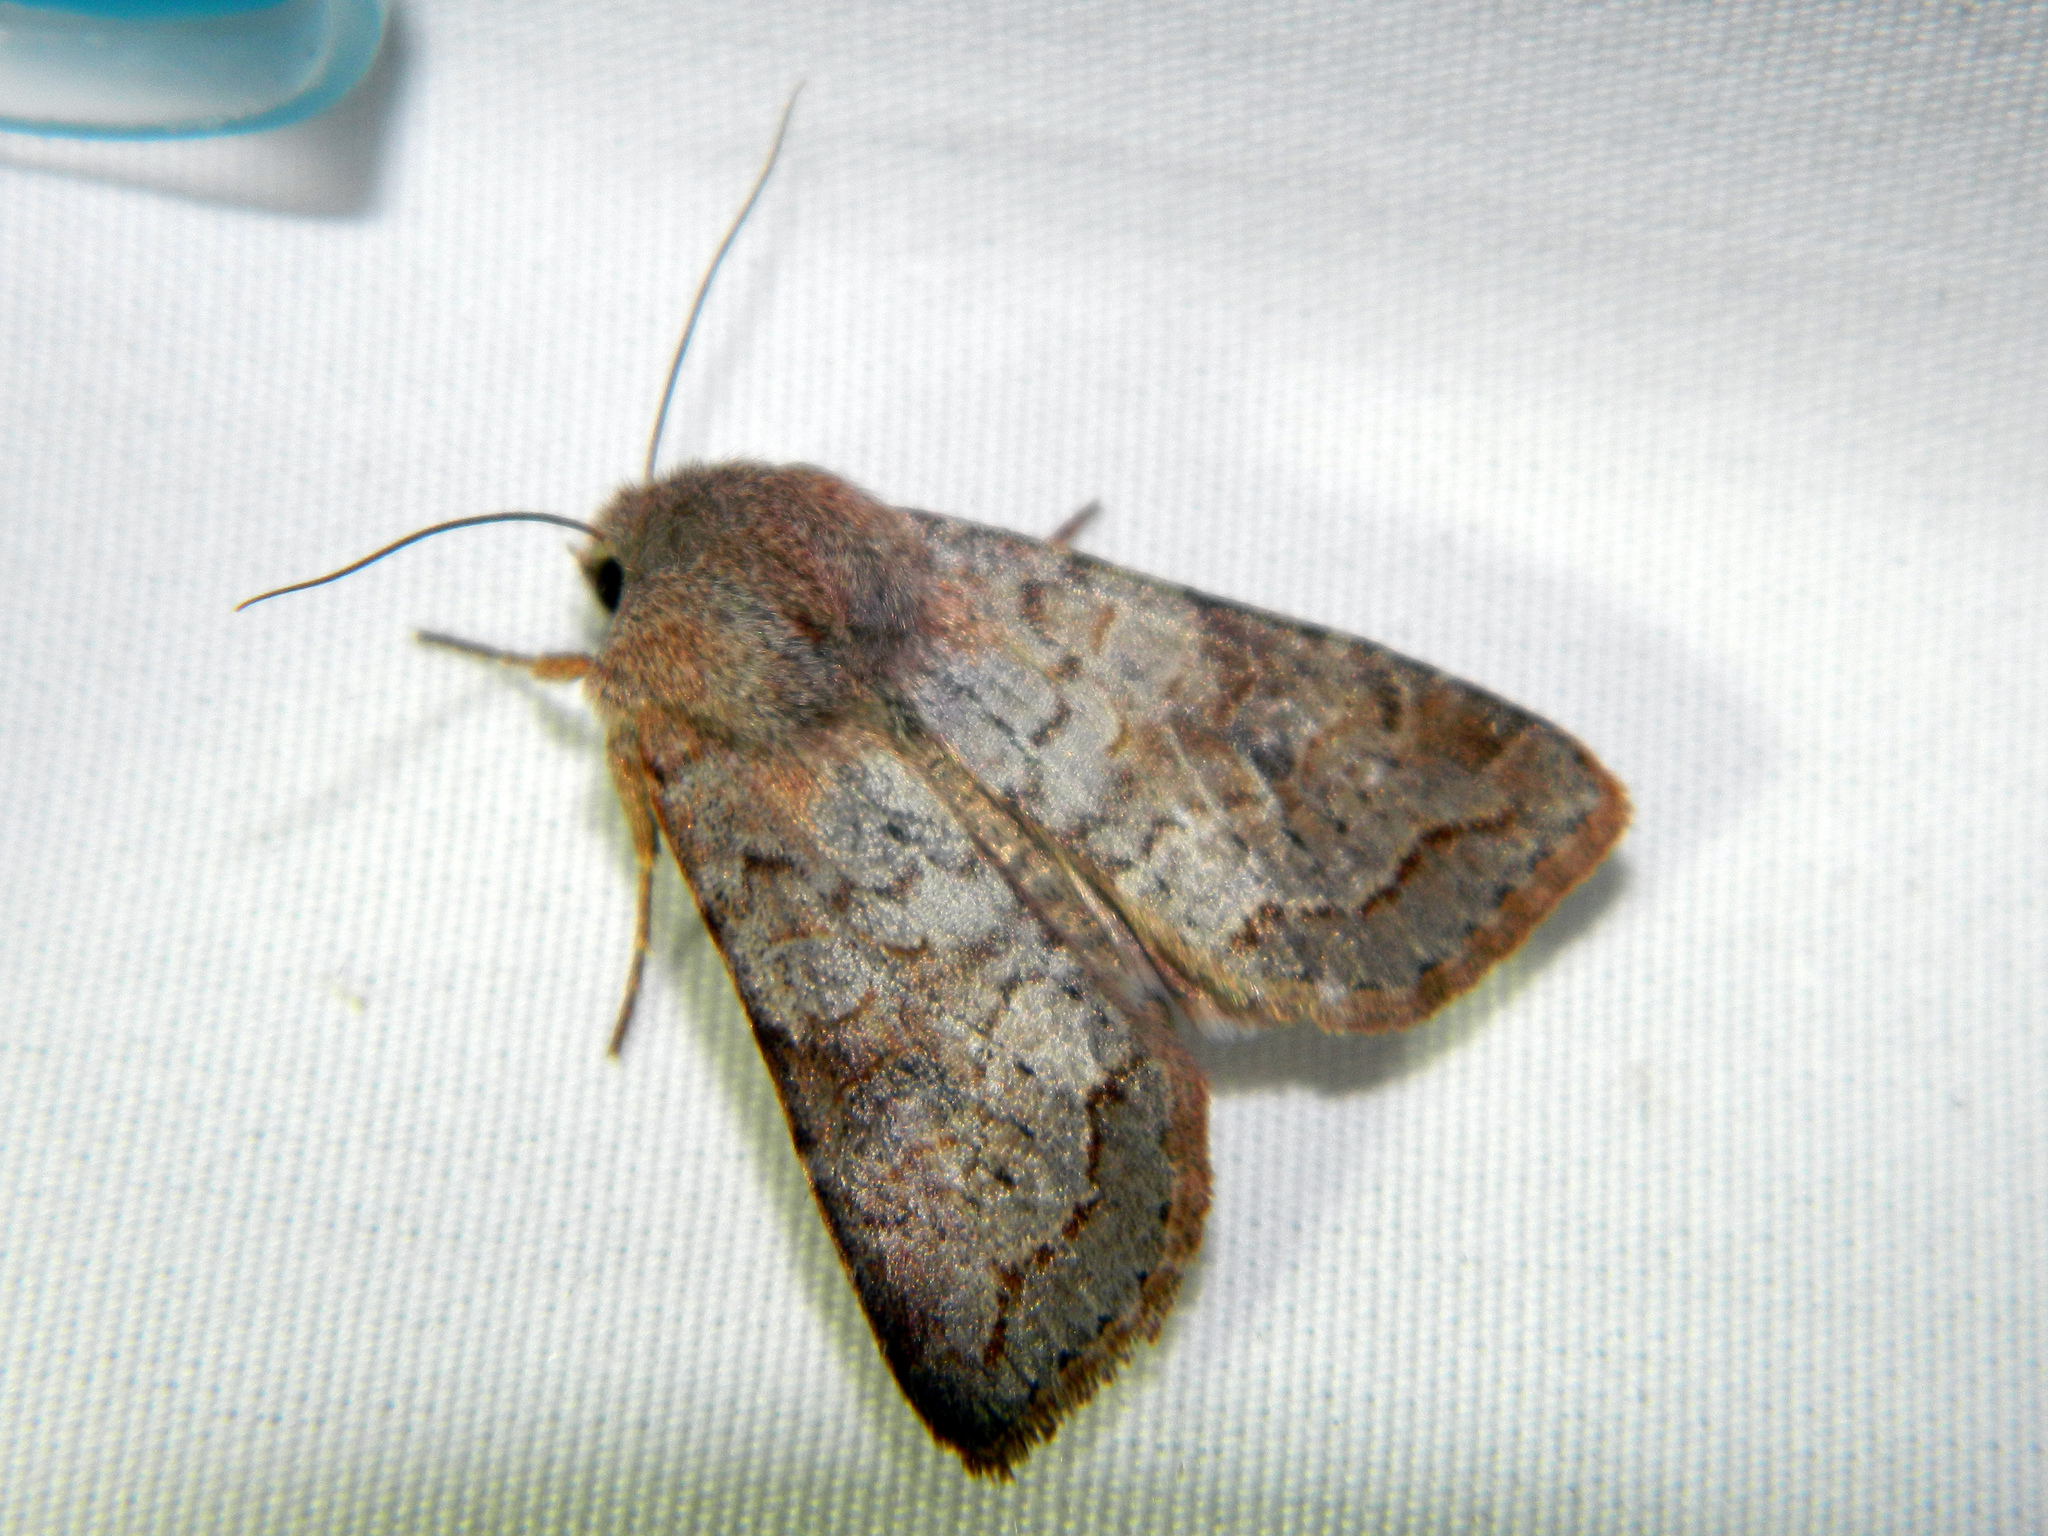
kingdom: Animalia
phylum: Arthropoda
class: Insecta
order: Lepidoptera
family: Noctuidae
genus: Orthosia
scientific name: Orthosia revicta
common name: Rusty whitesided caterpillar
